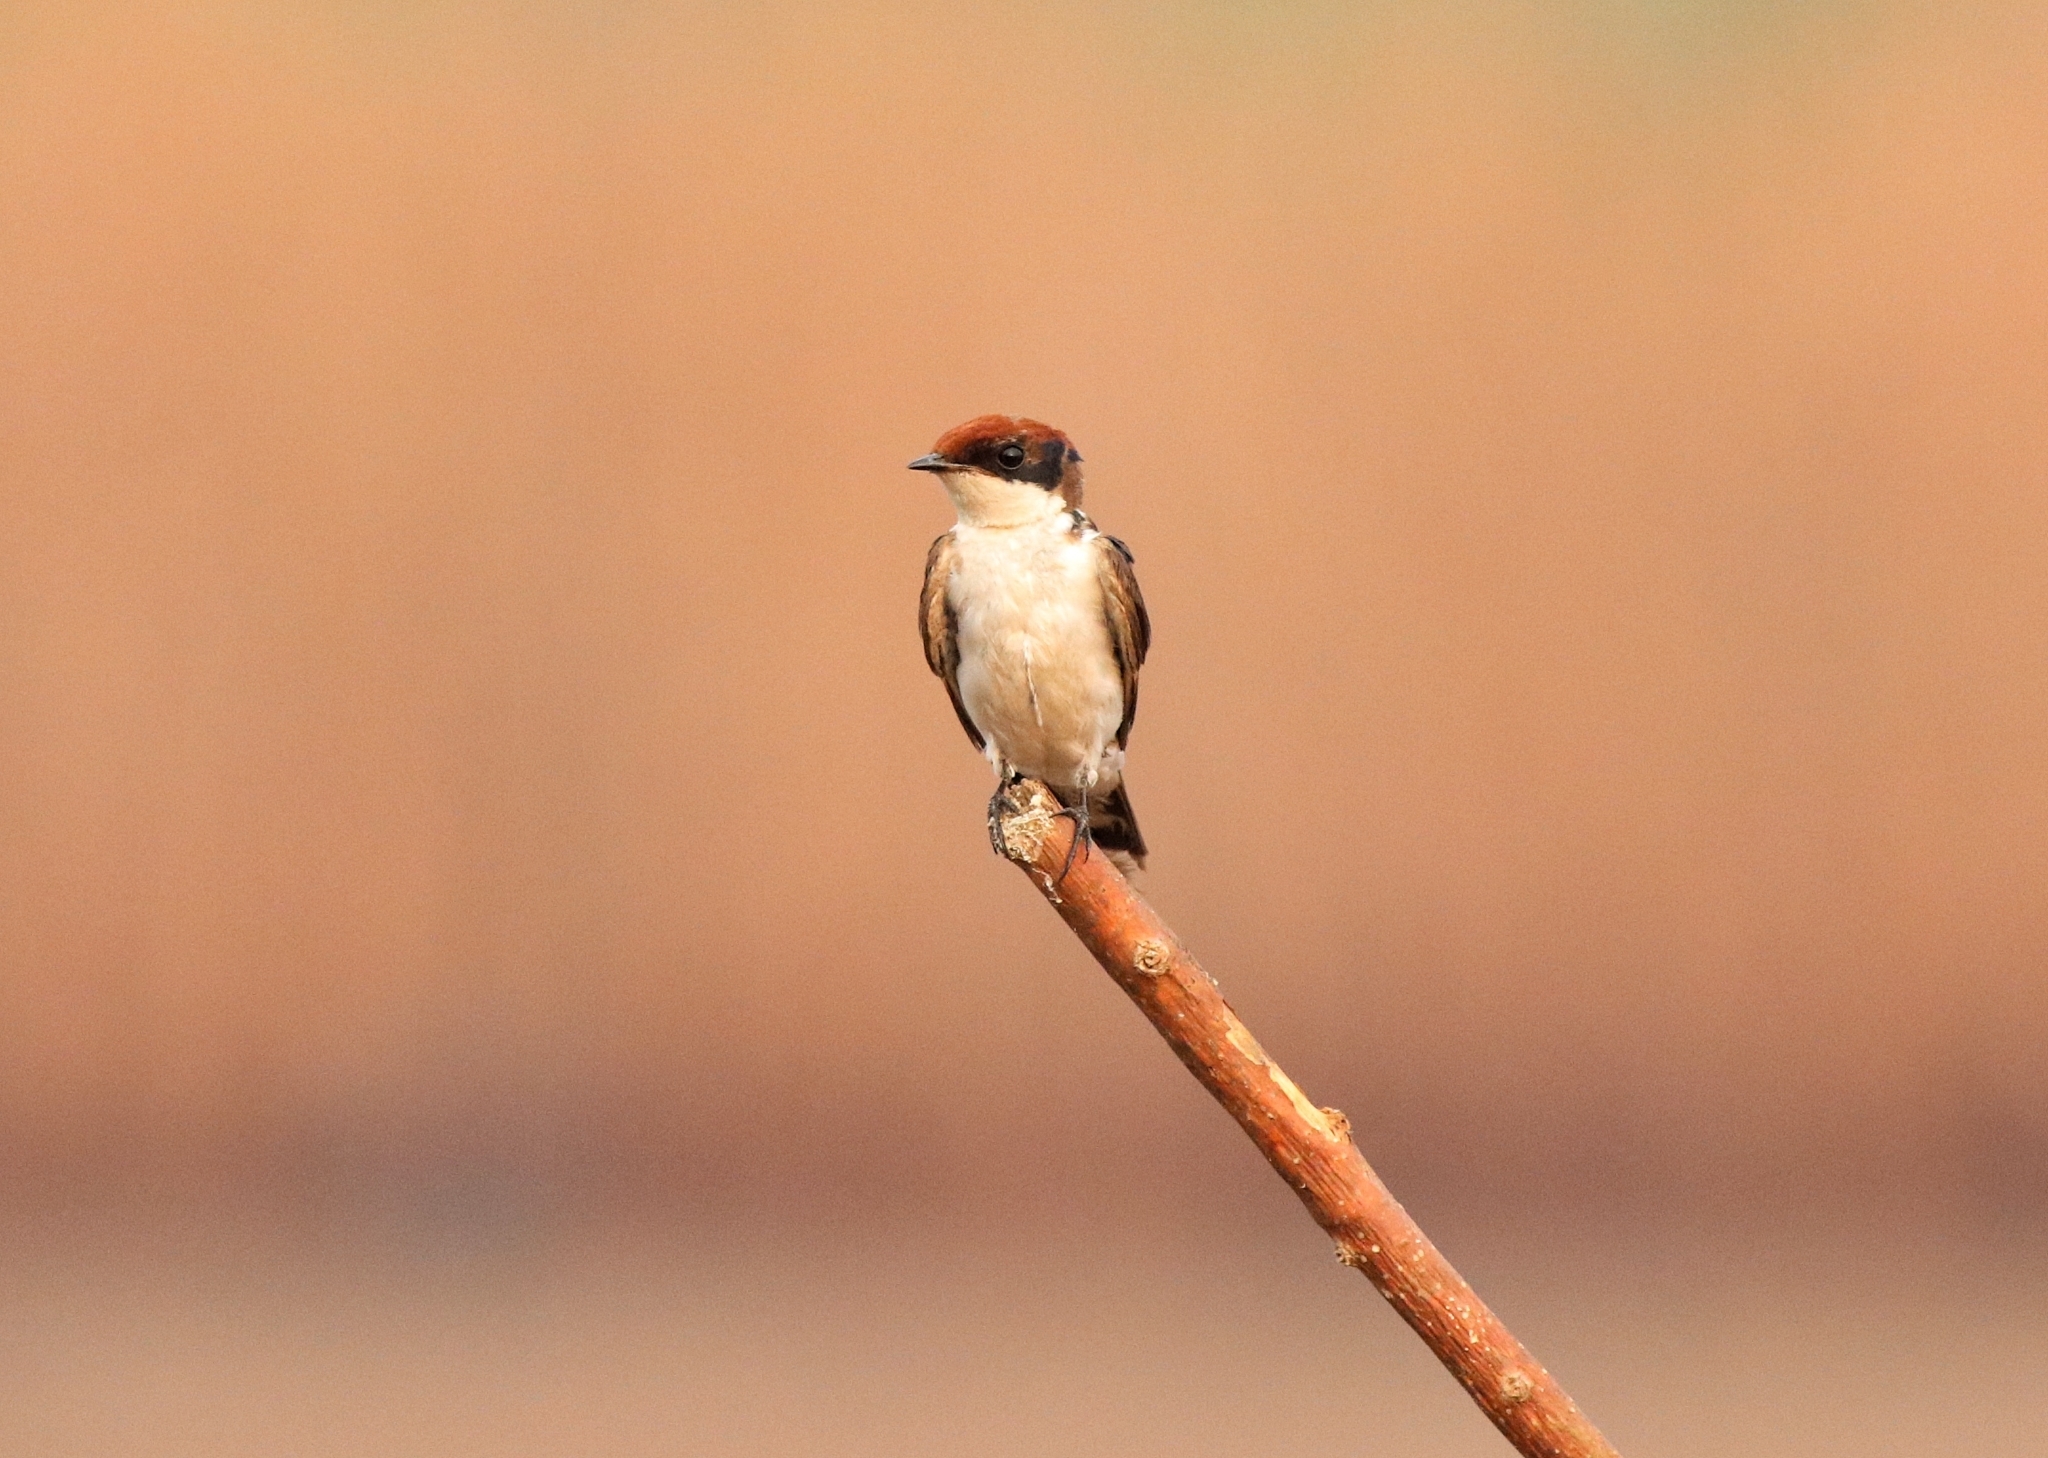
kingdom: Animalia
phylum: Chordata
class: Aves
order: Passeriformes
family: Hirundinidae
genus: Hirundo
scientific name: Hirundo smithii
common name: Wire-tailed swallow
